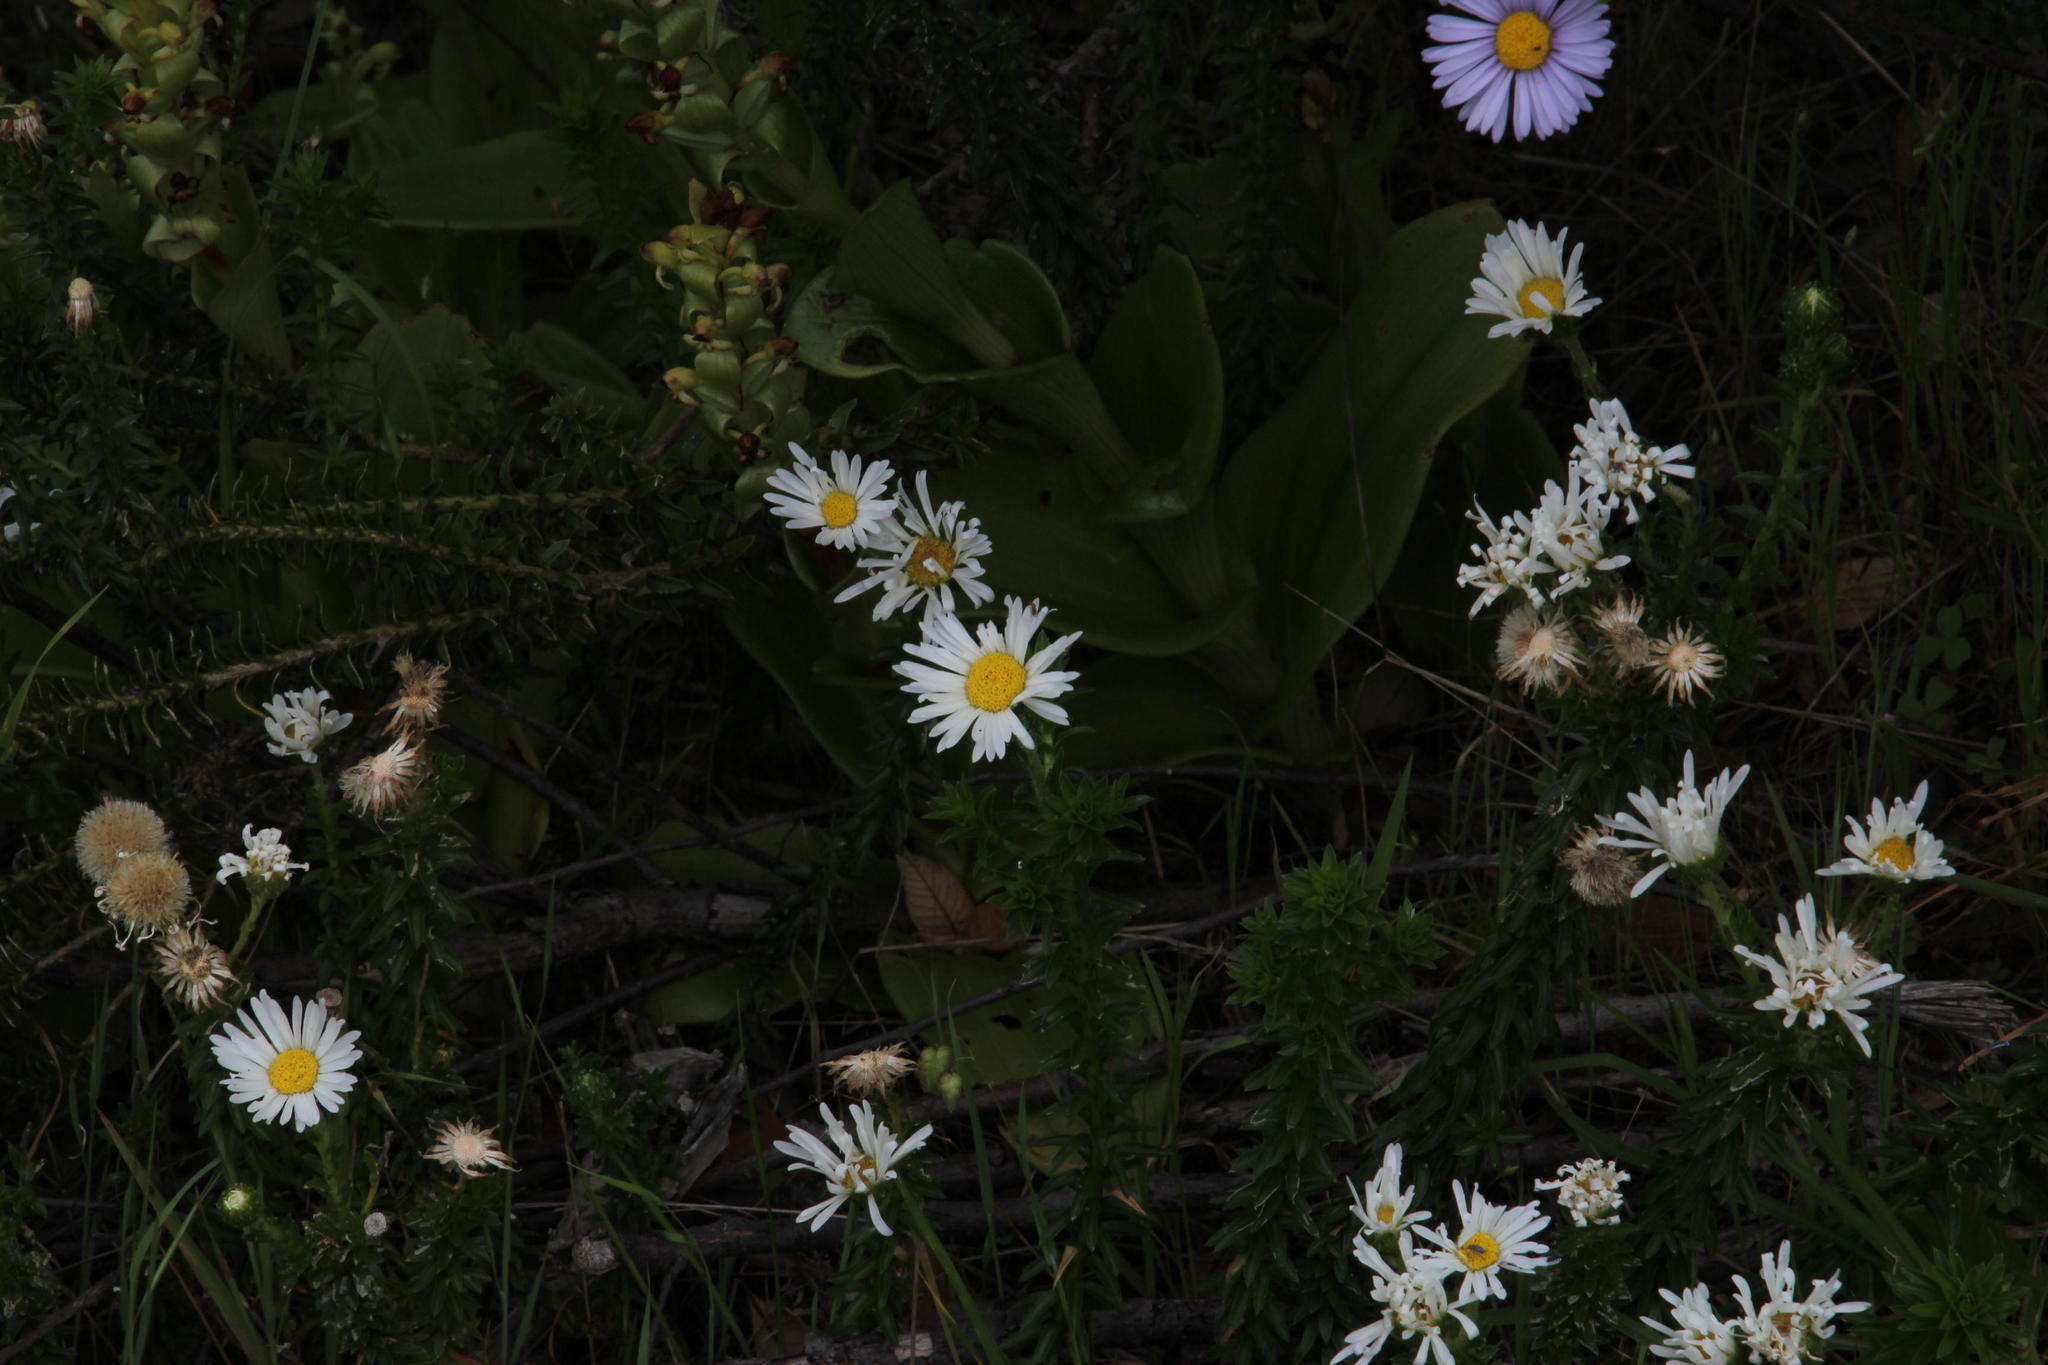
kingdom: Plantae
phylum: Tracheophyta
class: Magnoliopsida
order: Asterales
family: Asteraceae
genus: Felicia
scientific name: Felicia echinata
